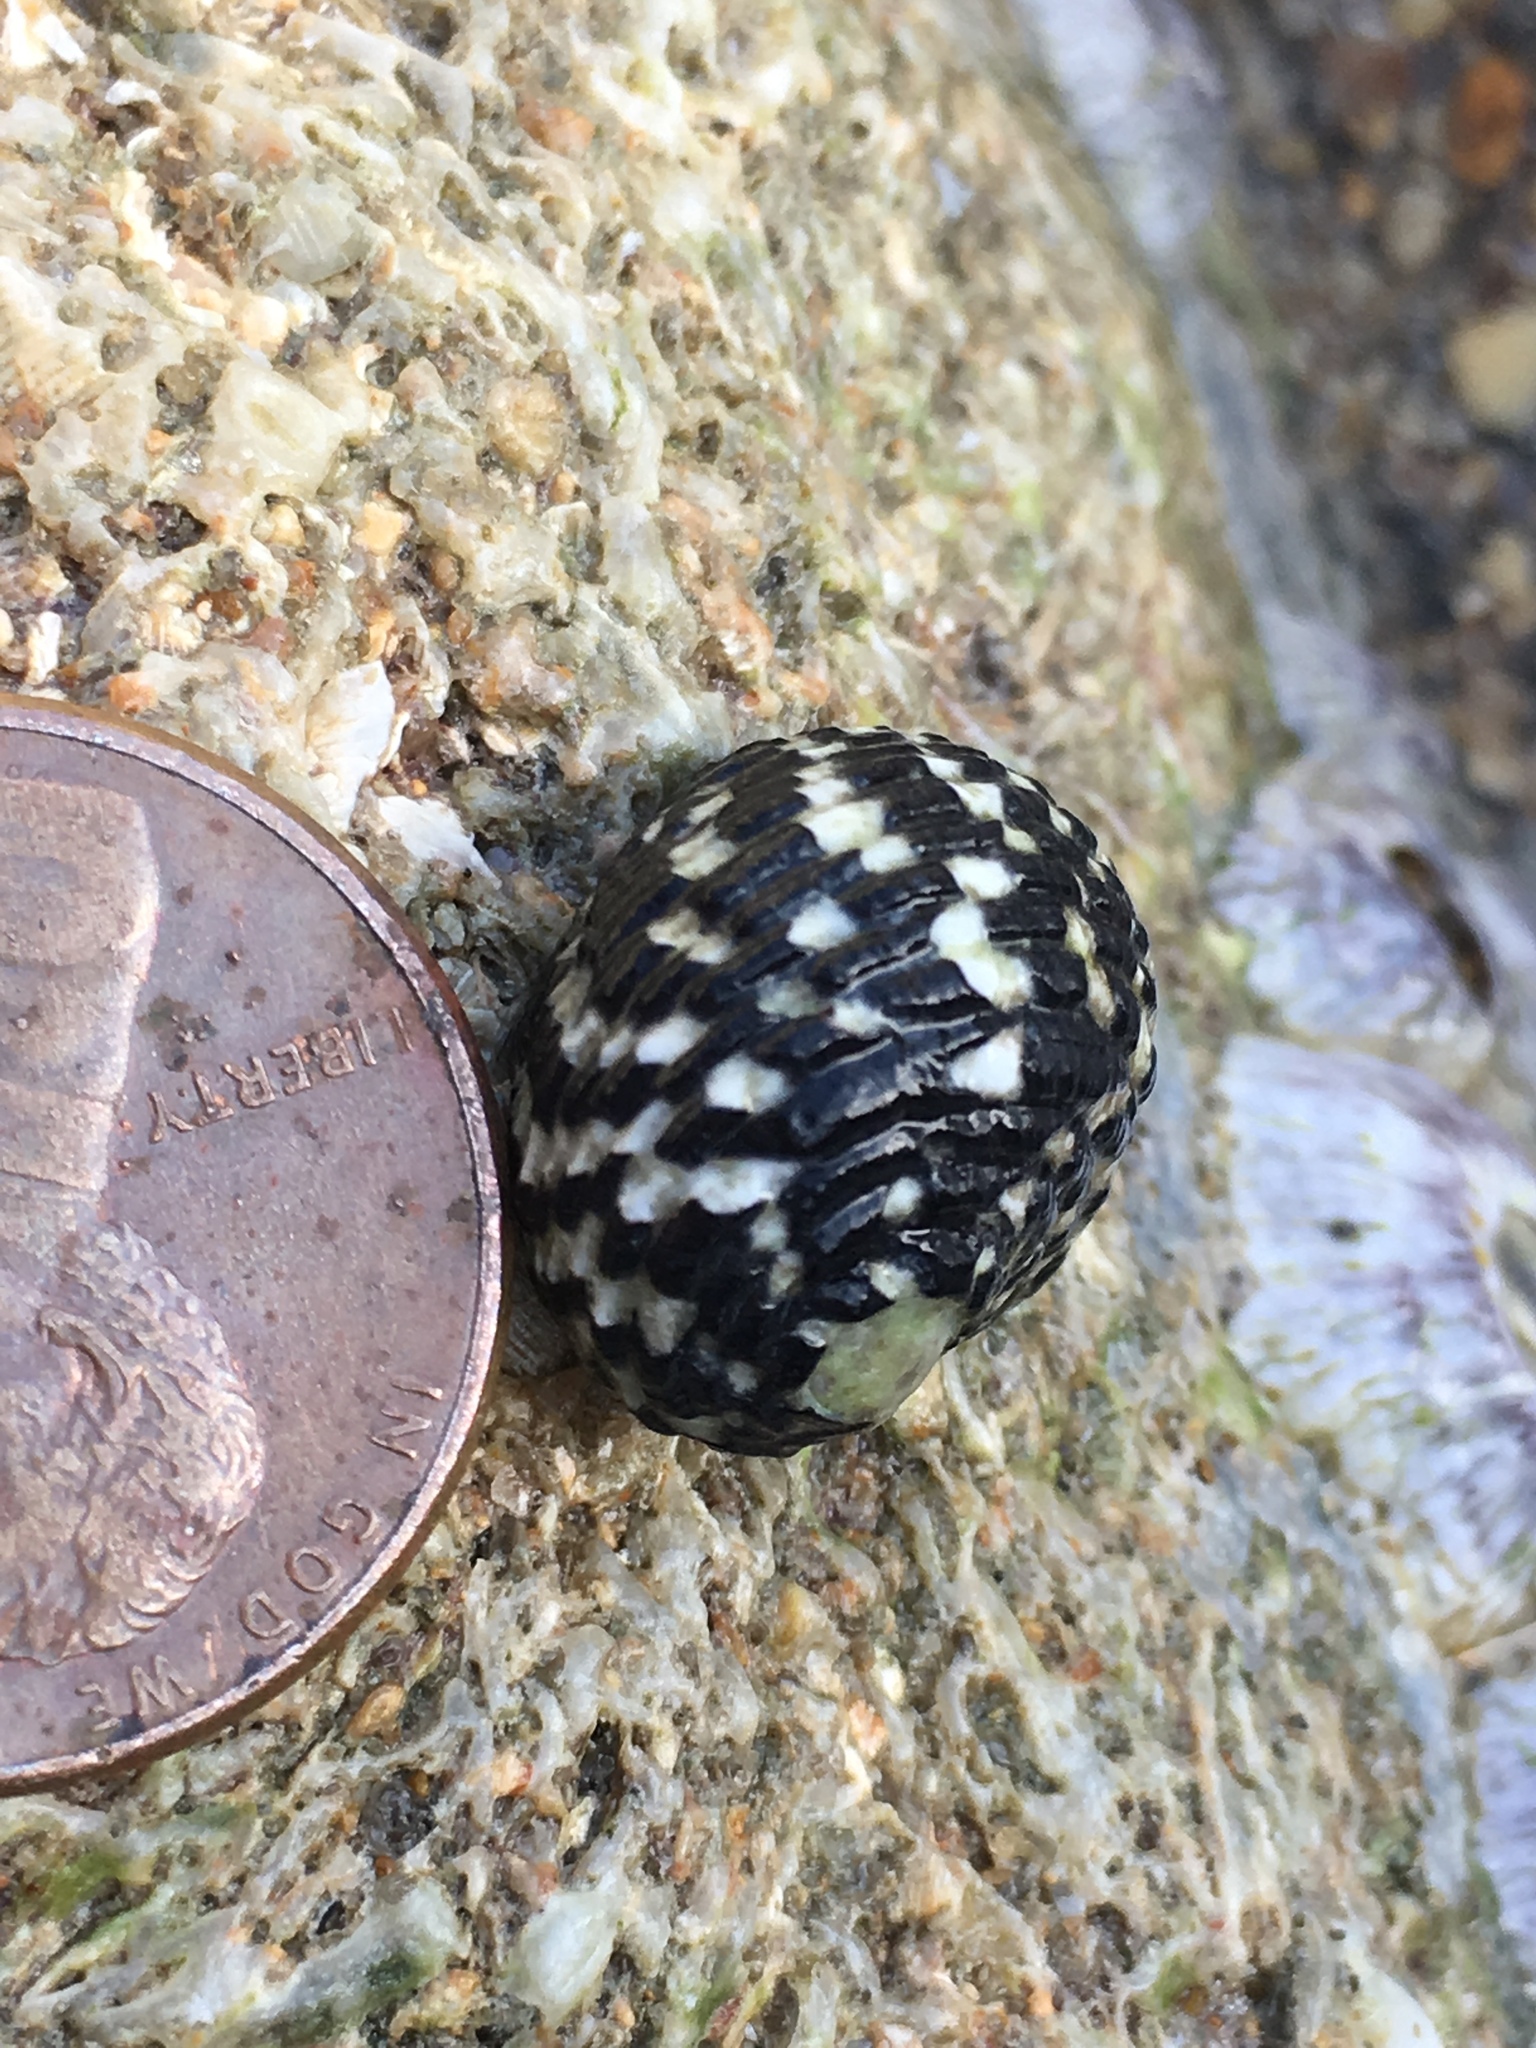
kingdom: Animalia
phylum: Mollusca
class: Gastropoda
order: Cycloneritida
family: Neritidae
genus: Nerita
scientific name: Nerita tessellata
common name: Checkered nerite
